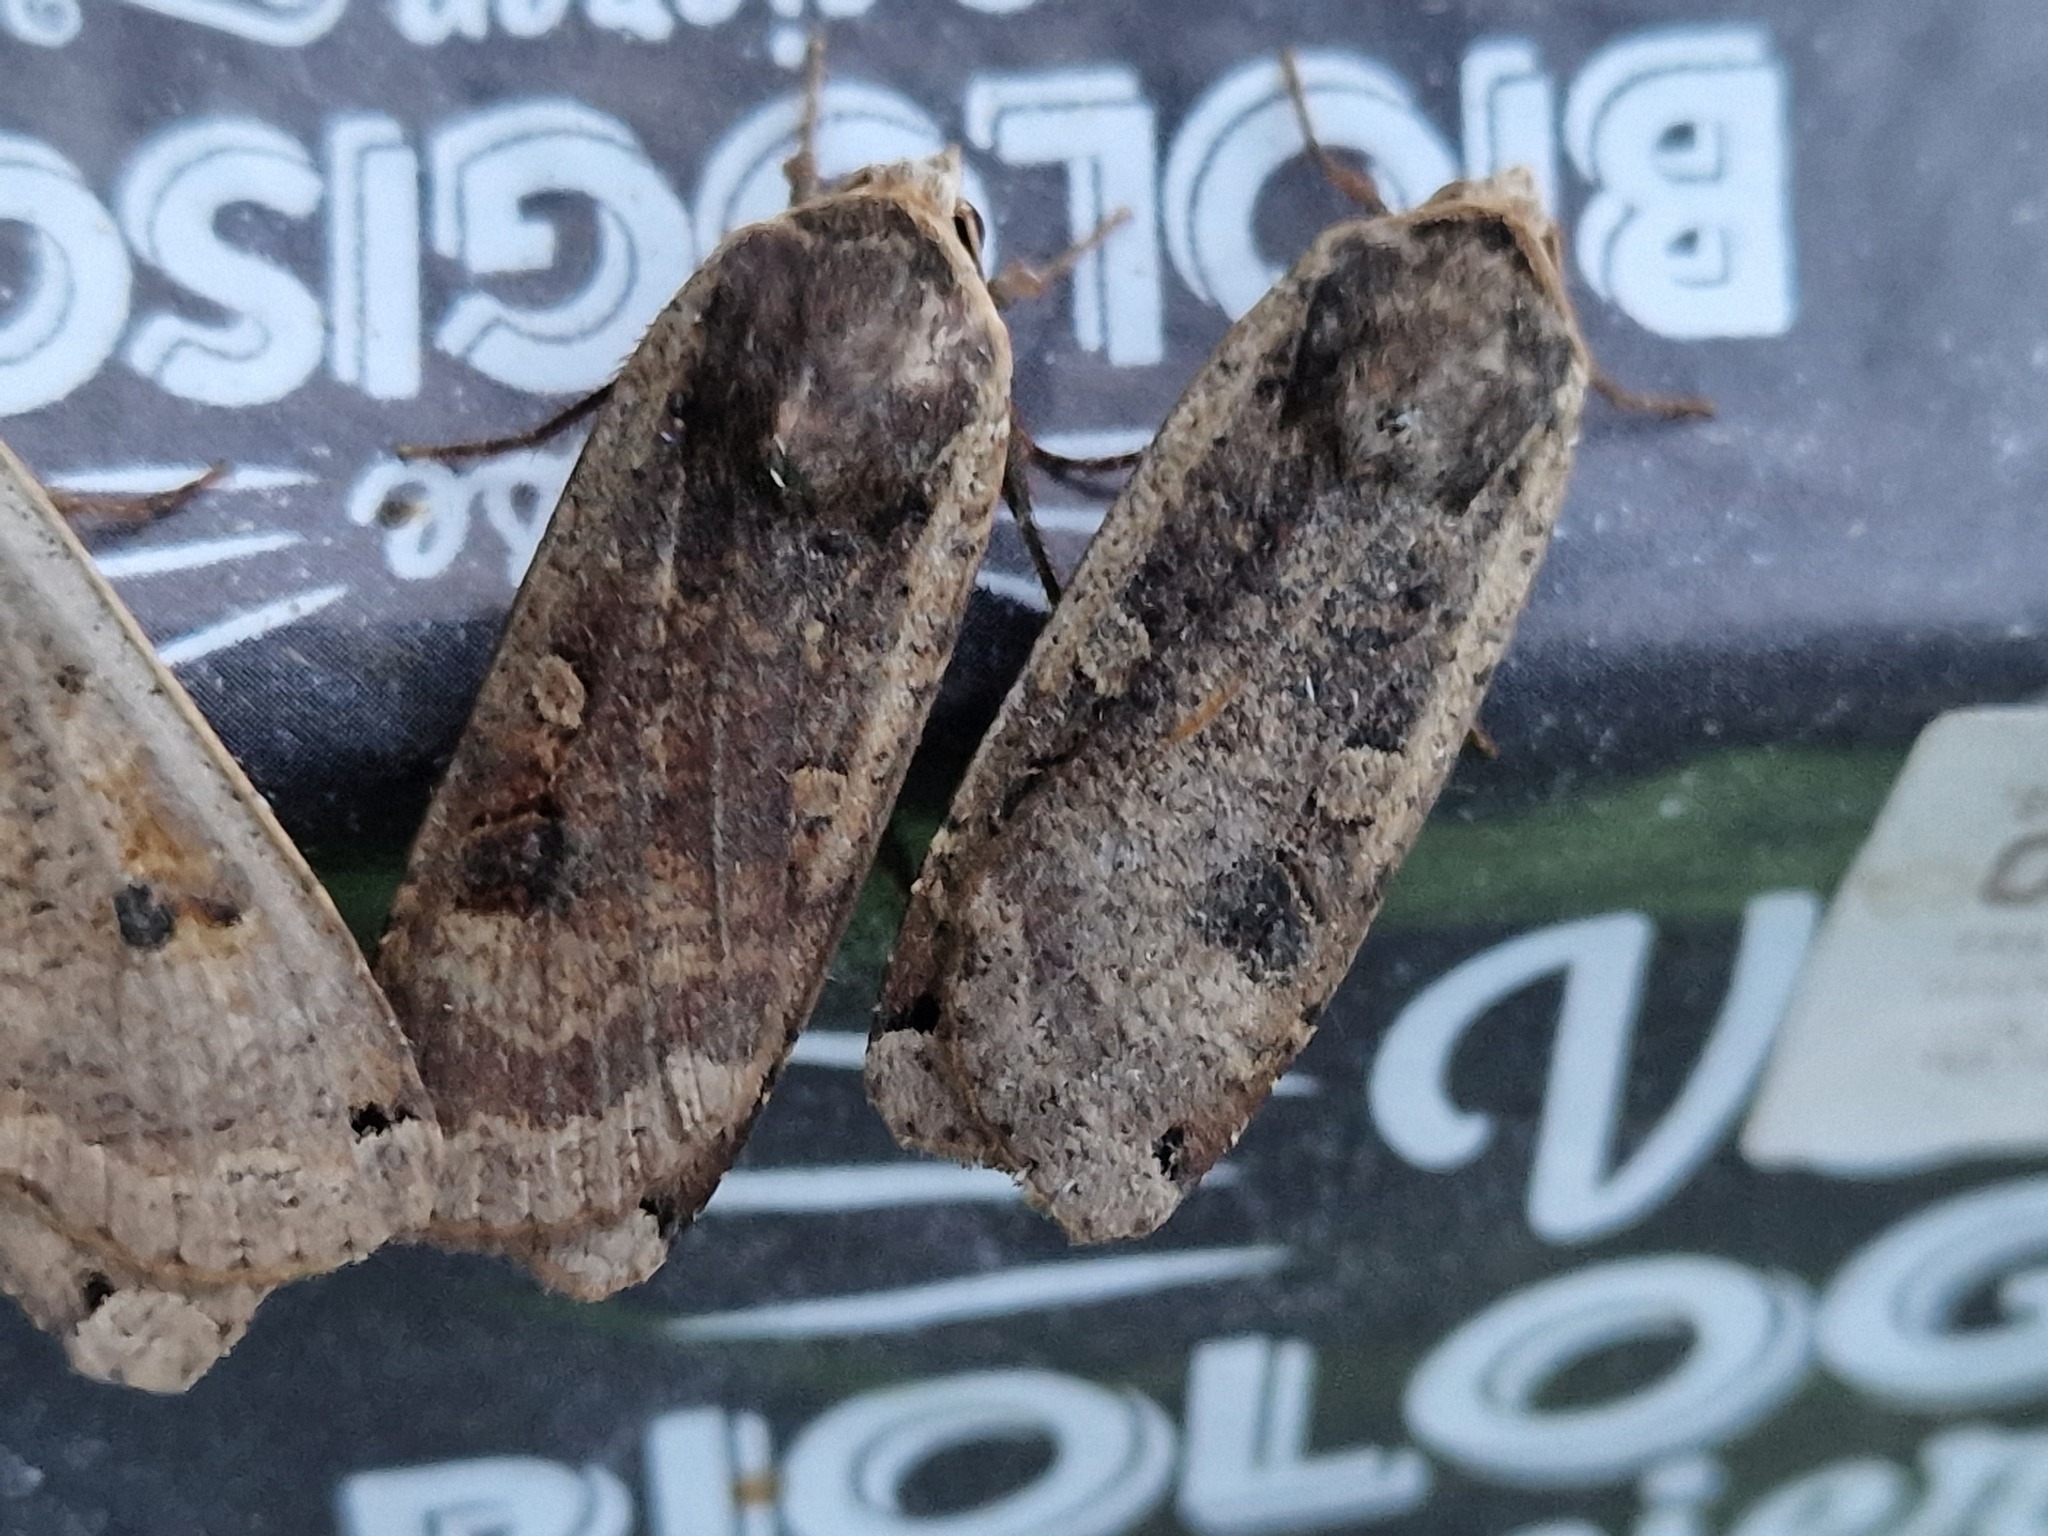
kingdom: Animalia
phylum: Arthropoda
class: Insecta
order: Lepidoptera
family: Noctuidae
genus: Noctua
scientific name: Noctua pronuba
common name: Large yellow underwing
